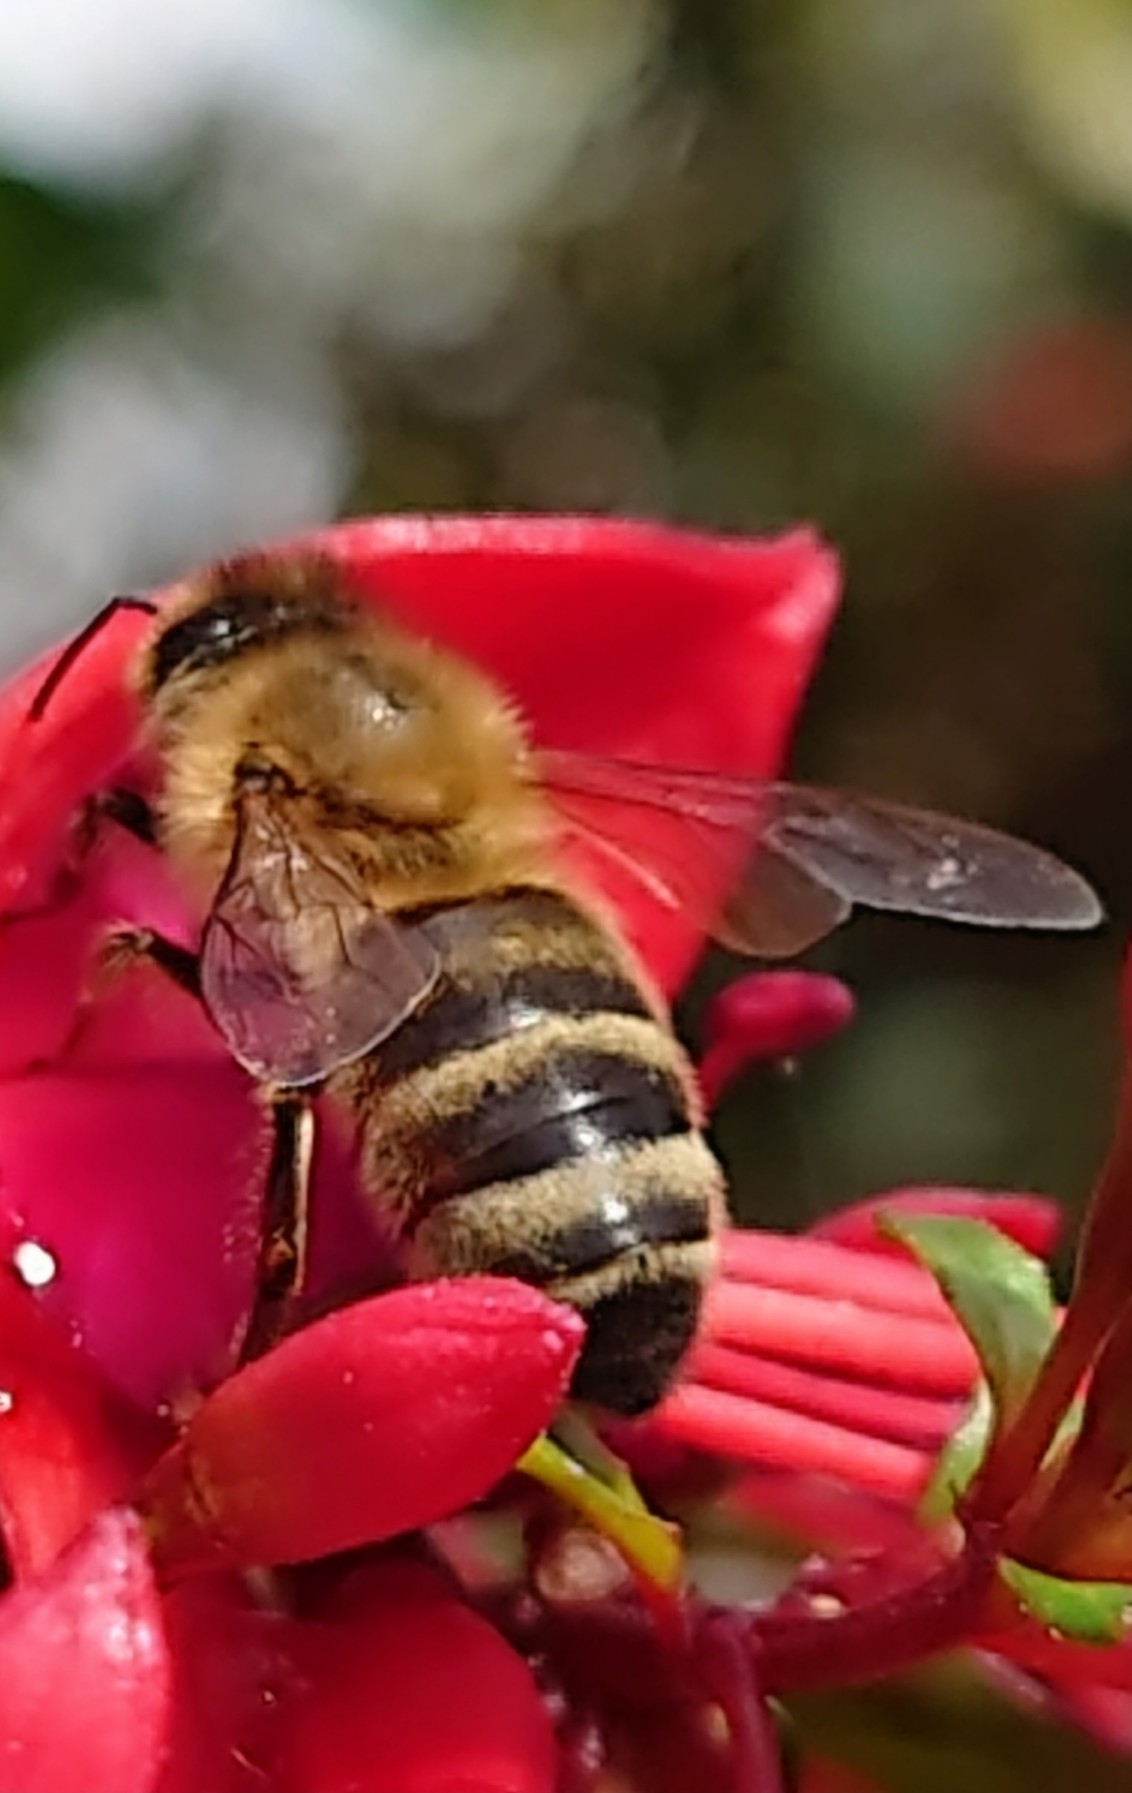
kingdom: Animalia
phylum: Arthropoda
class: Insecta
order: Hymenoptera
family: Apidae
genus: Apis
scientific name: Apis mellifera
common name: Honey bee
